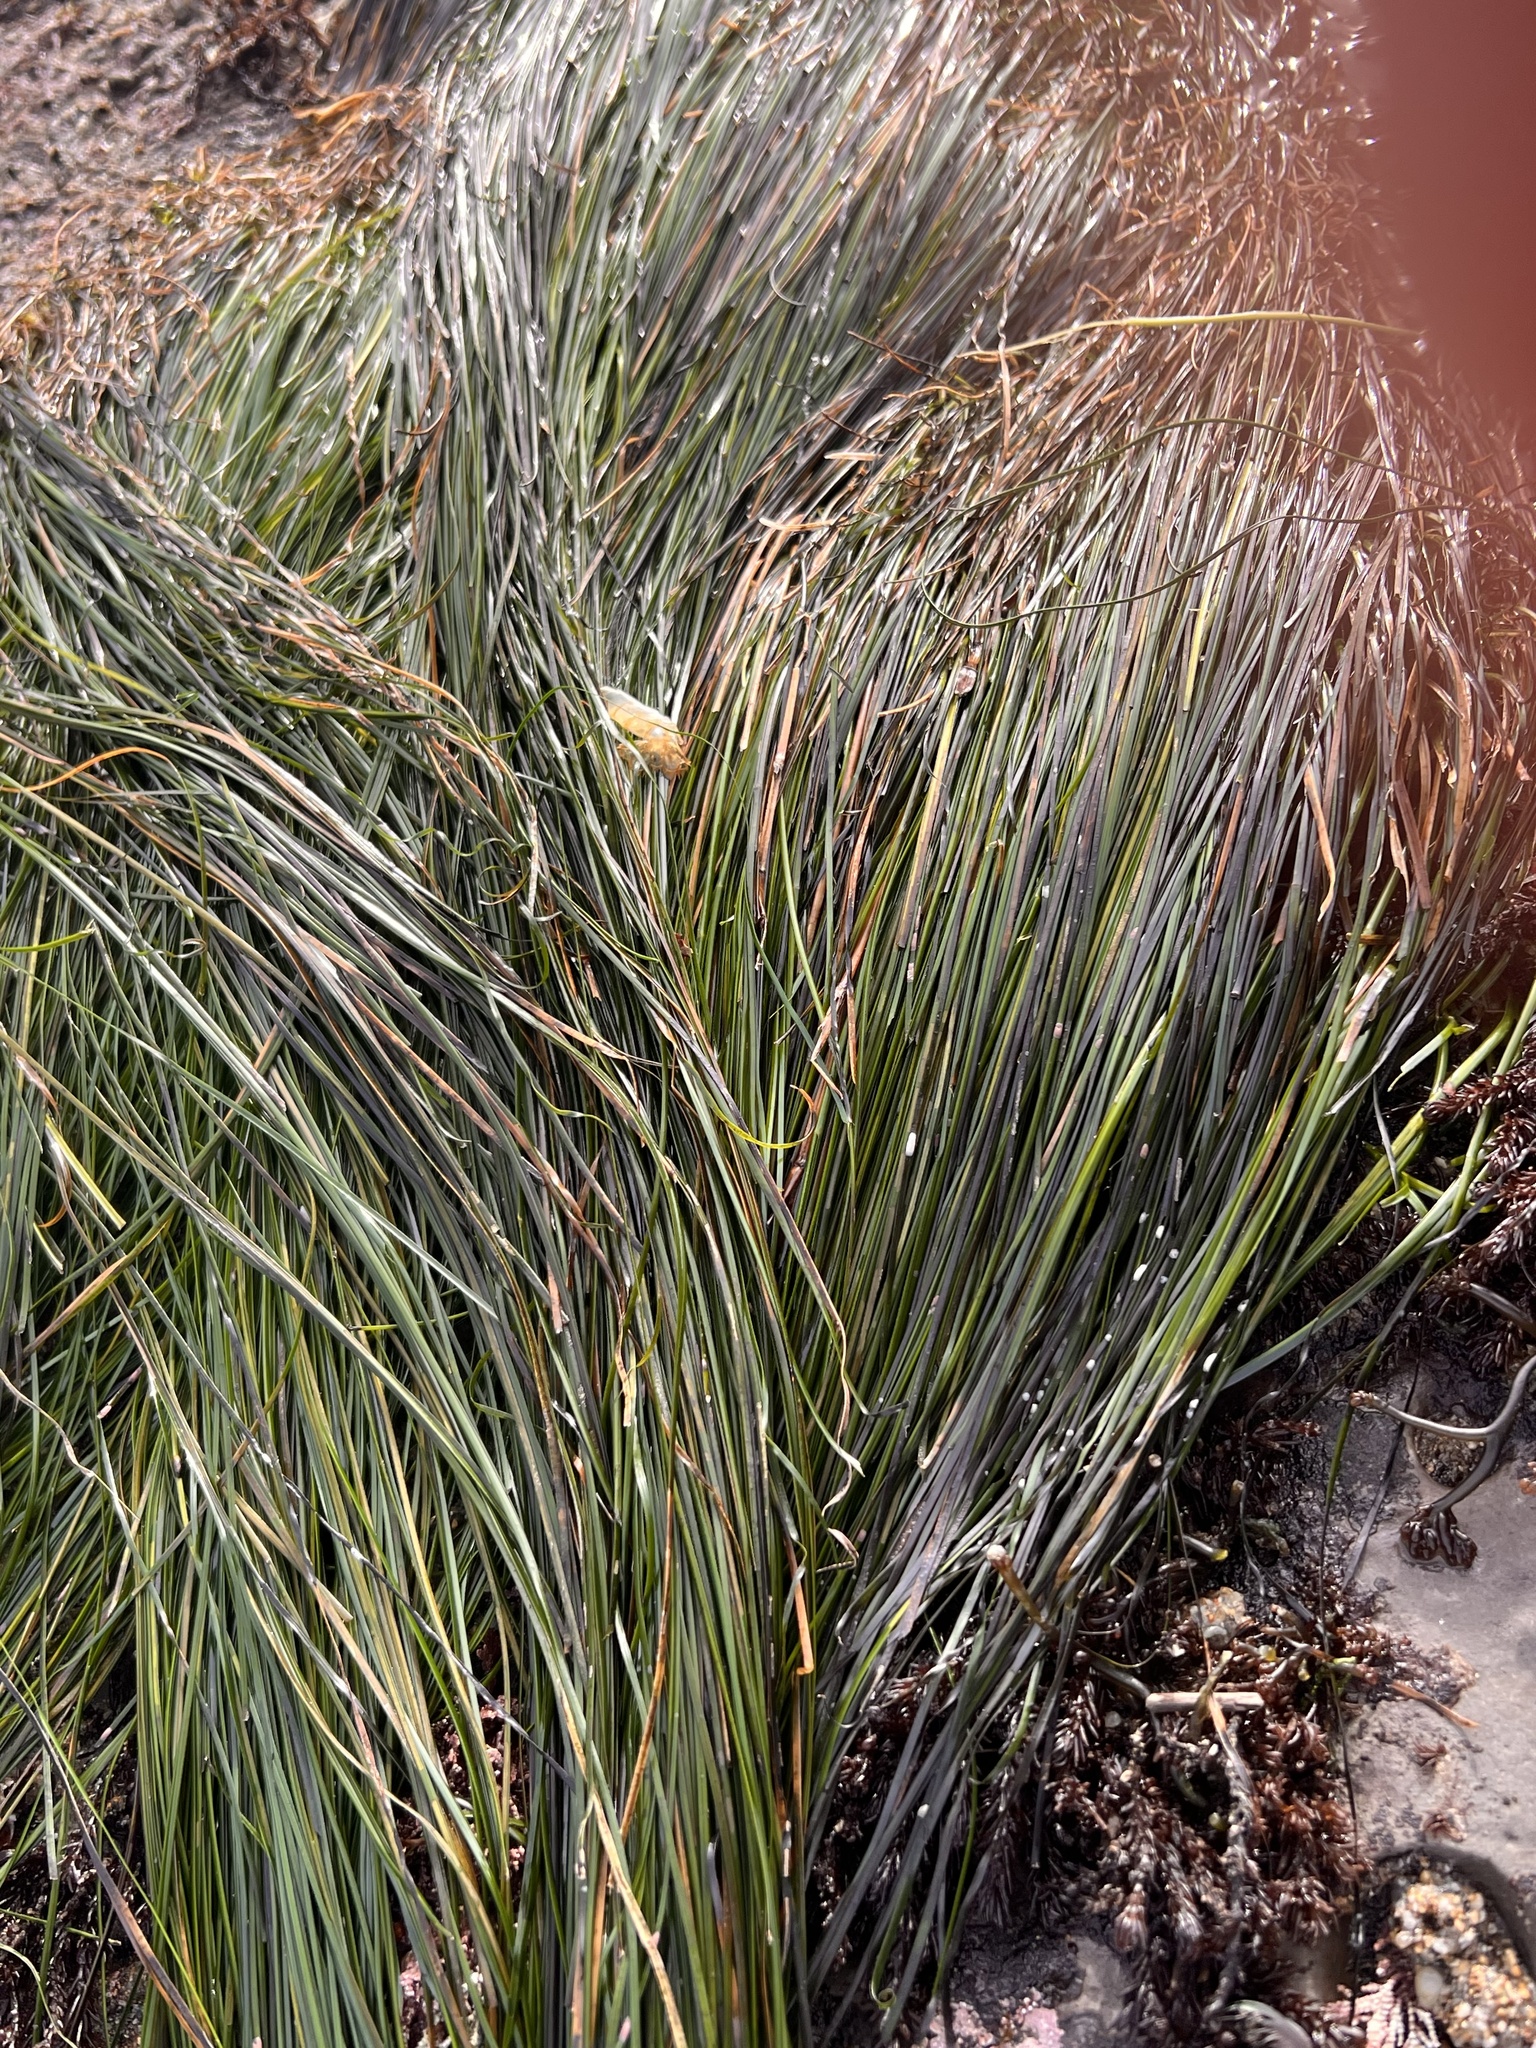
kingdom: Plantae
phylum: Tracheophyta
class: Liliopsida
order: Alismatales
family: Zosteraceae
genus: Phyllospadix
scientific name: Phyllospadix torreyi
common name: Surfgrass
